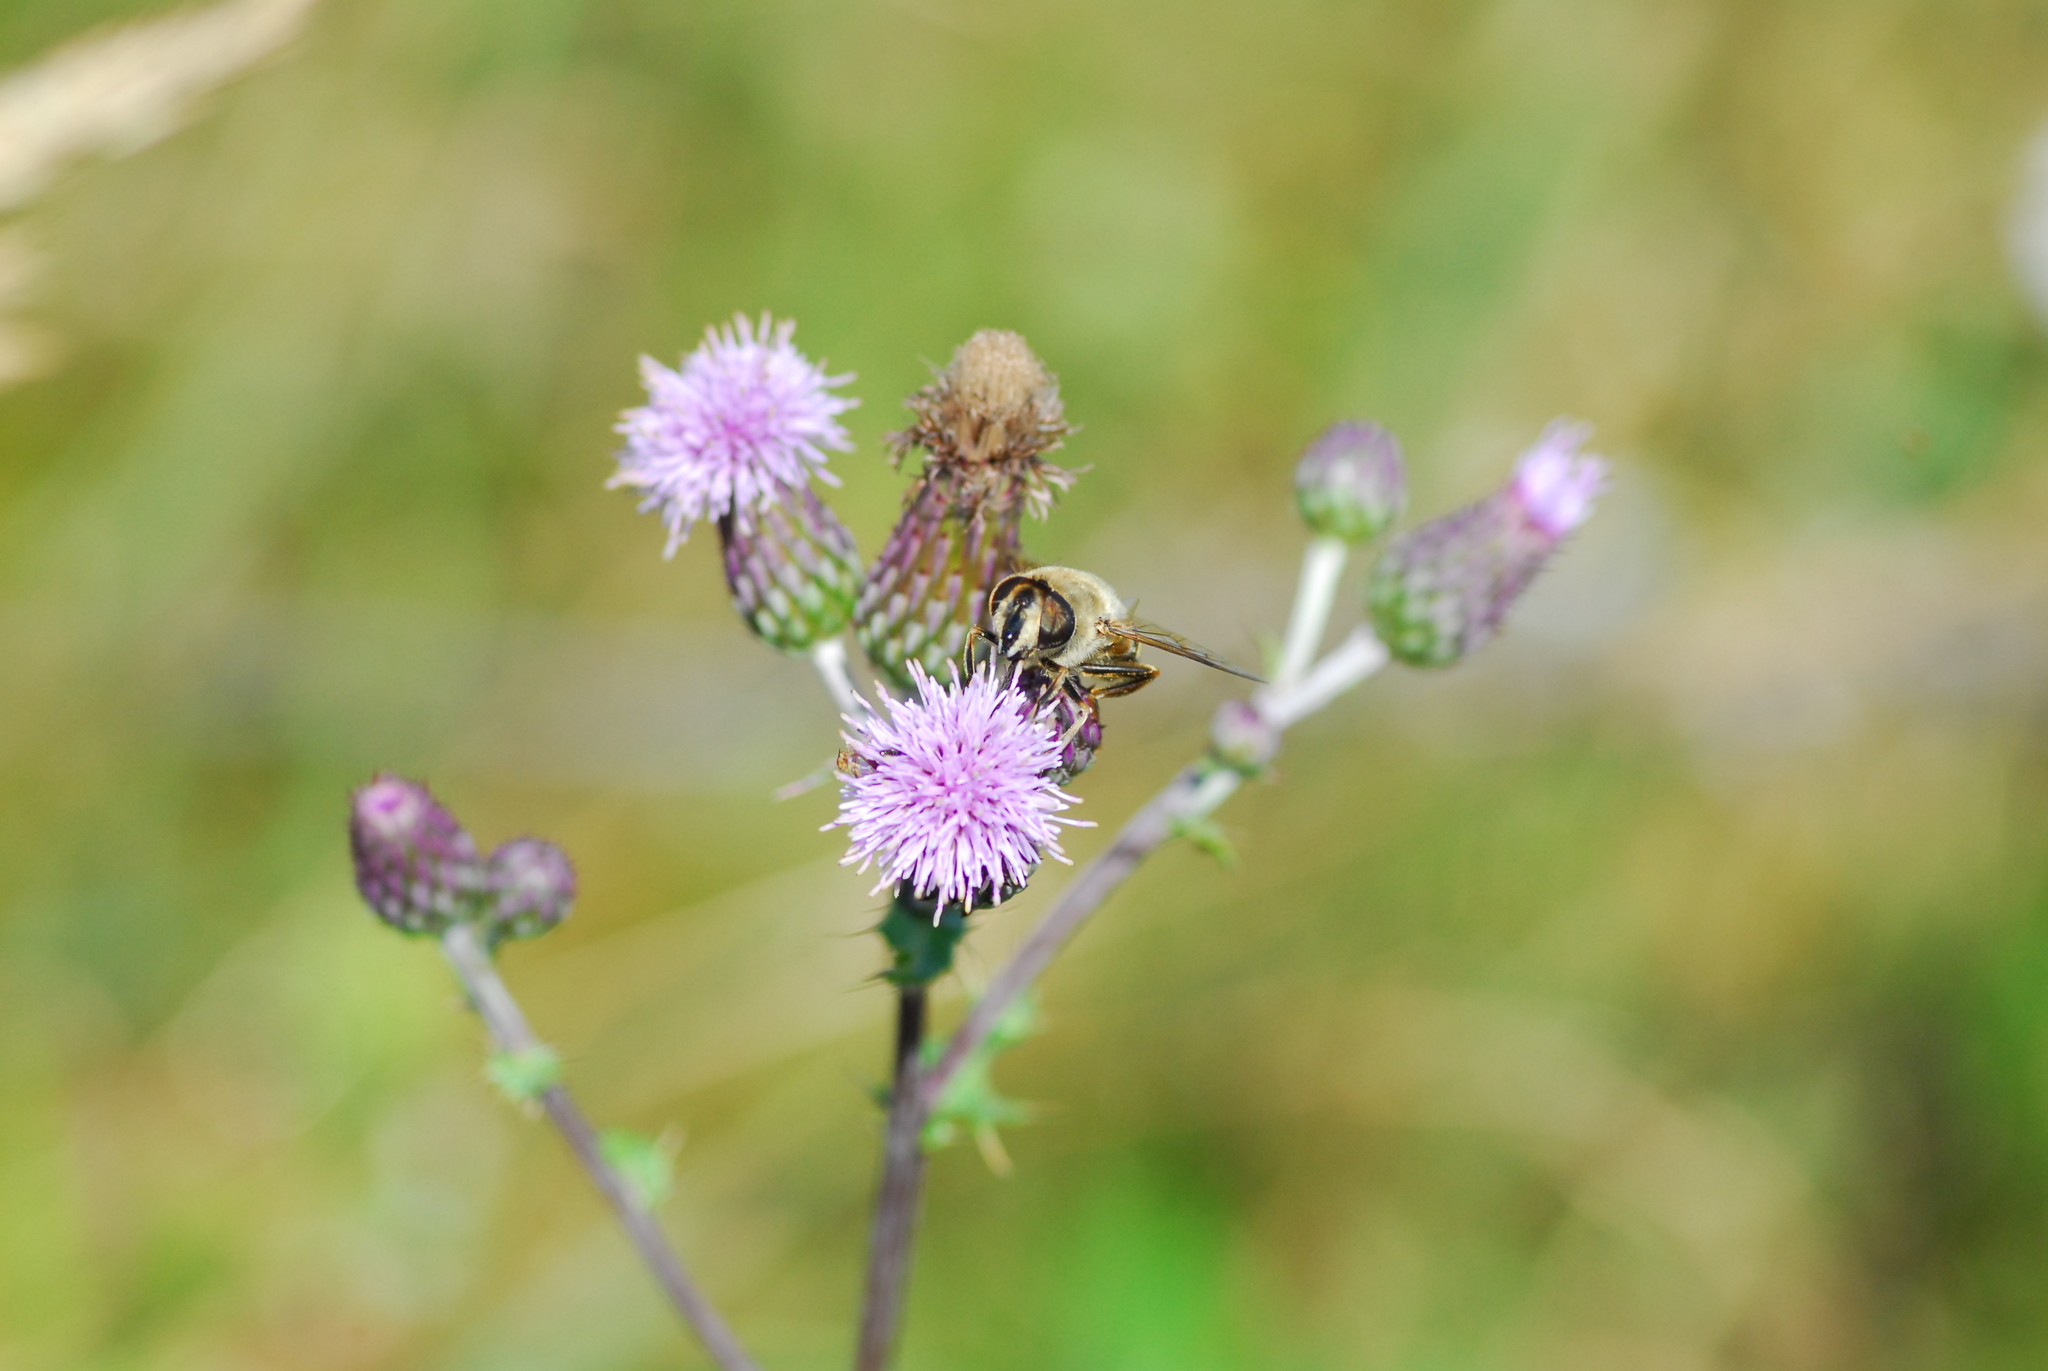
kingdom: Animalia
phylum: Arthropoda
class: Insecta
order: Diptera
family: Syrphidae
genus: Eristalis
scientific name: Eristalis tenax
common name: Drone fly
